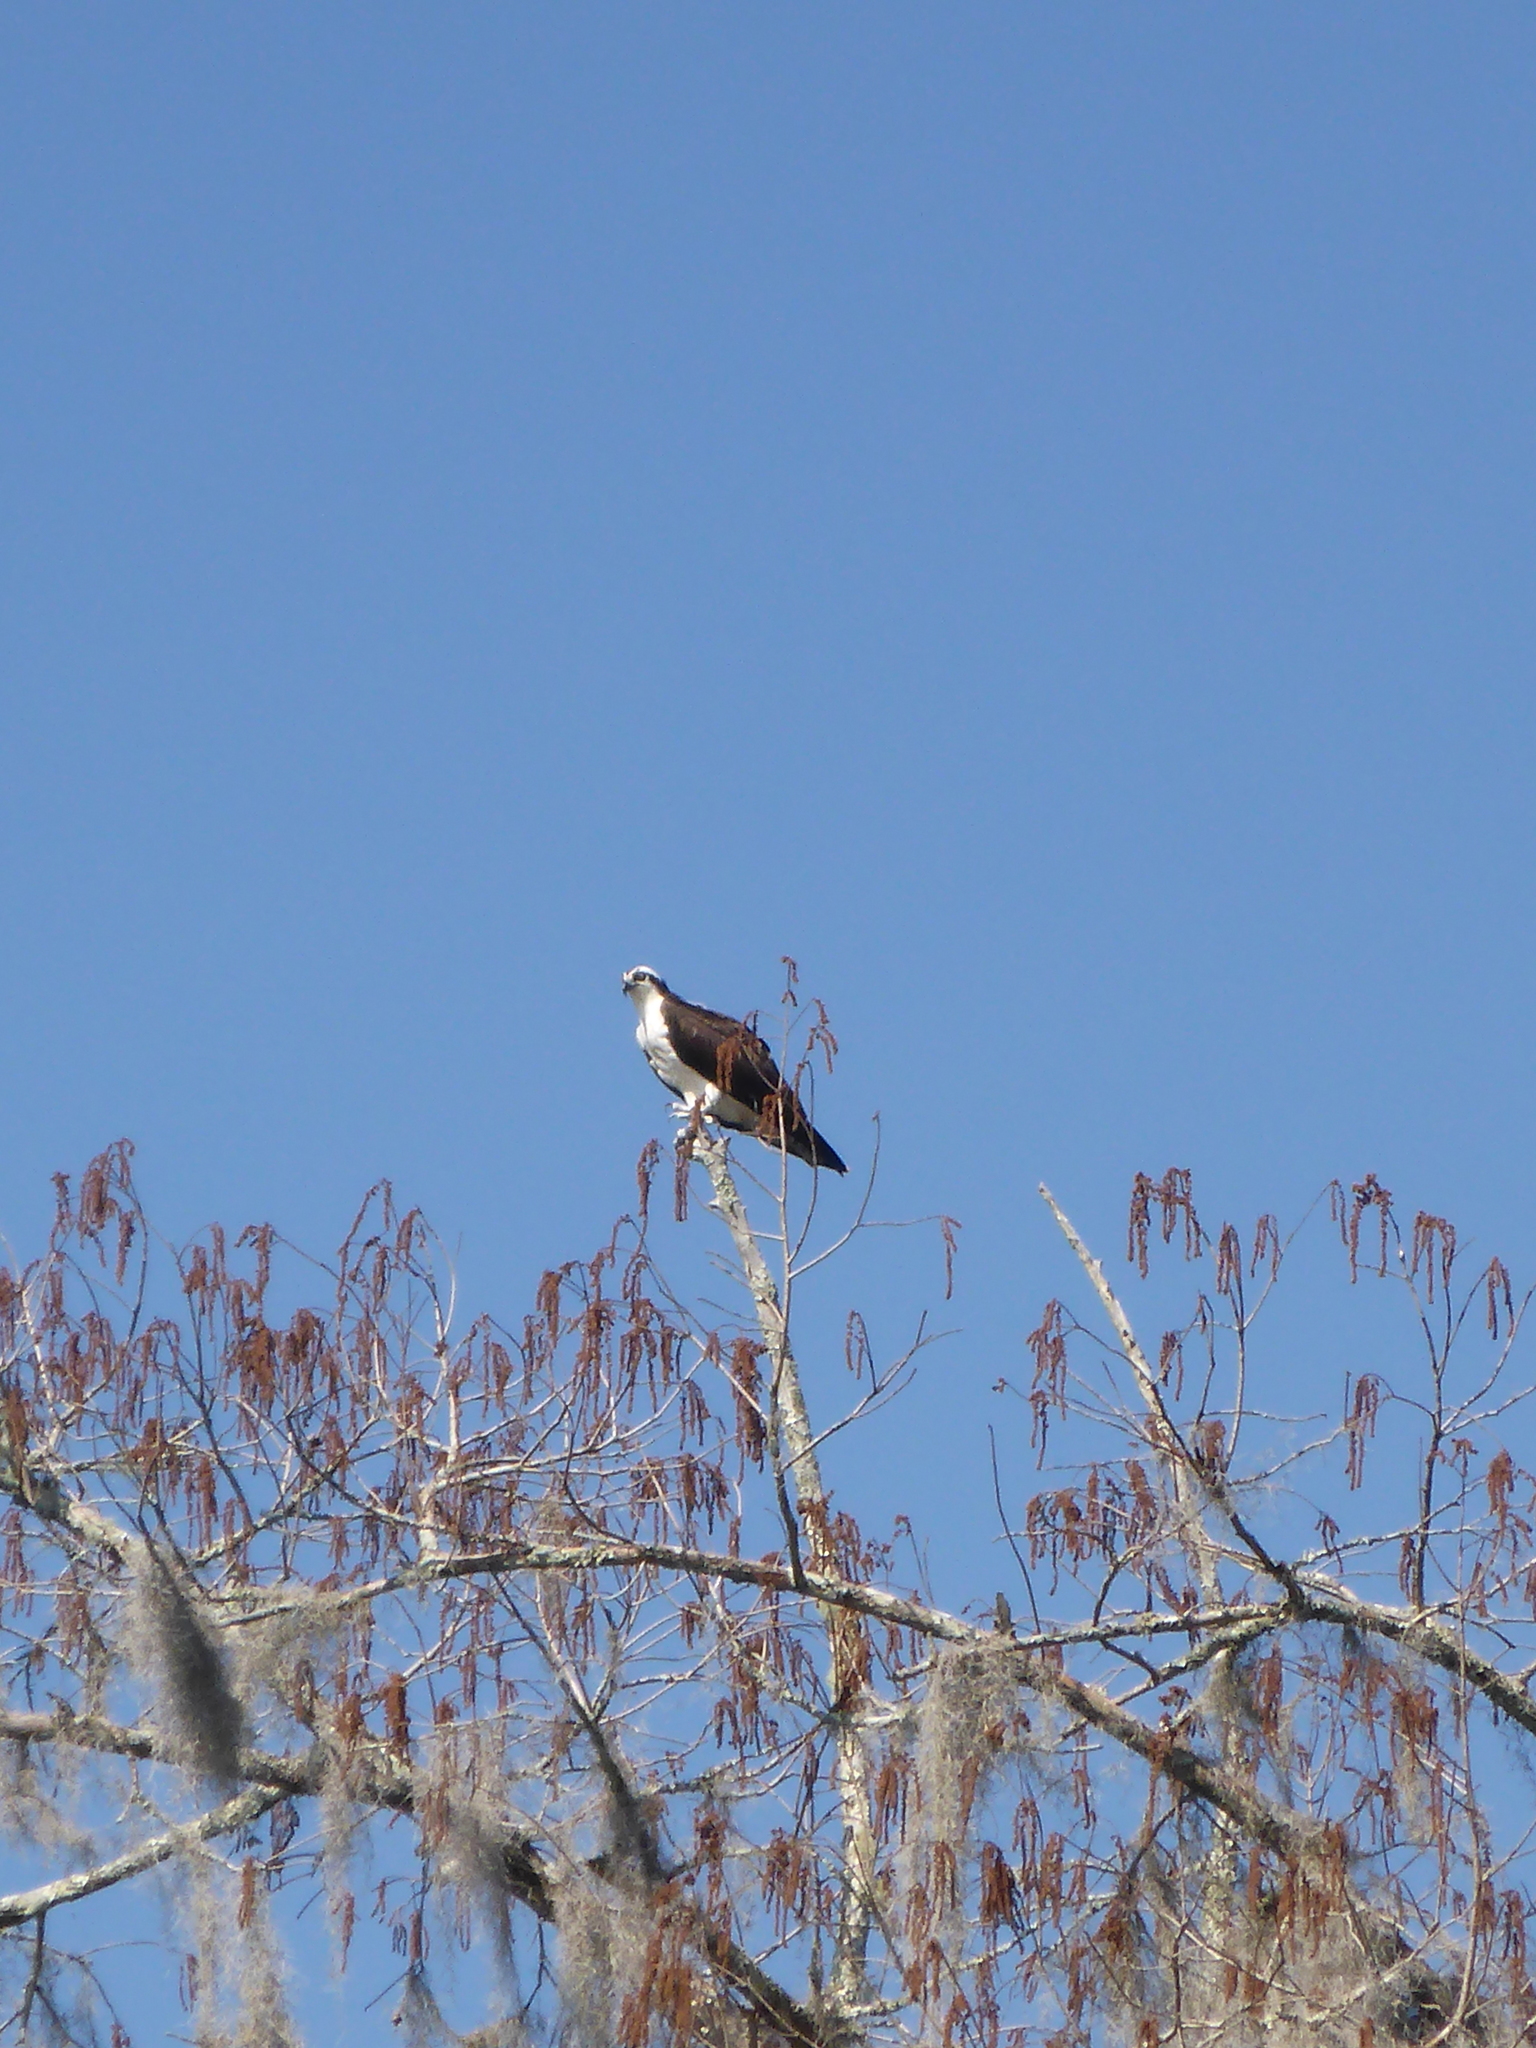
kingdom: Animalia
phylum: Chordata
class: Aves
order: Accipitriformes
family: Pandionidae
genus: Pandion
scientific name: Pandion haliaetus
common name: Osprey
